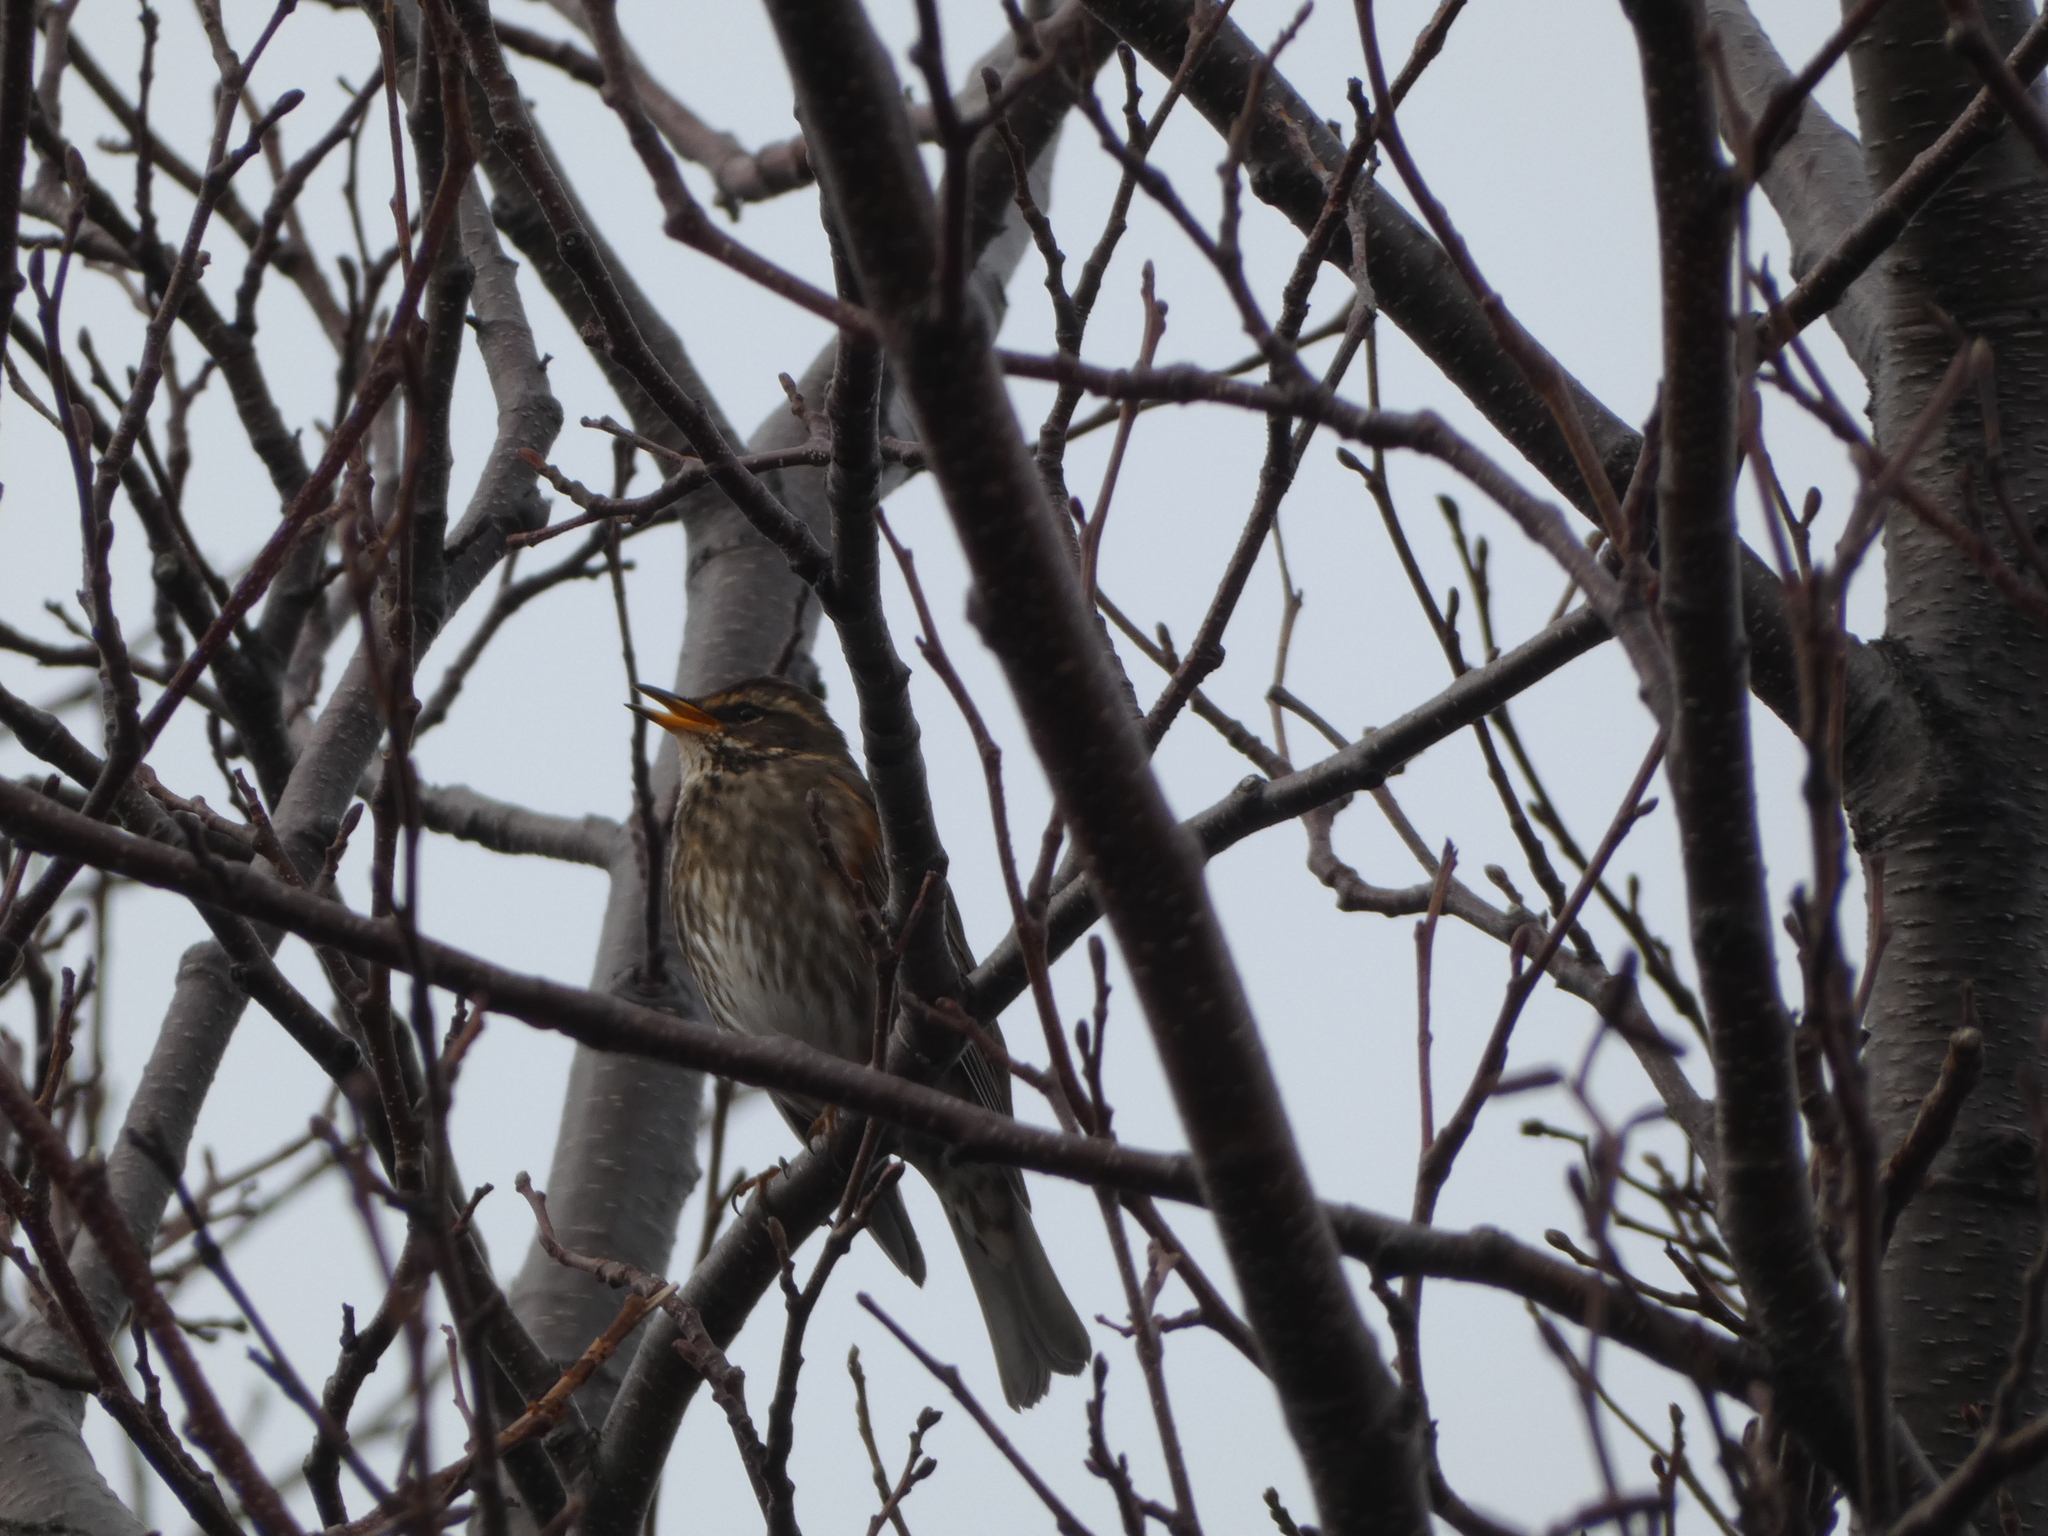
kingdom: Animalia
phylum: Chordata
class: Aves
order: Passeriformes
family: Turdidae
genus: Turdus
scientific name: Turdus iliacus
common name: Redwing
